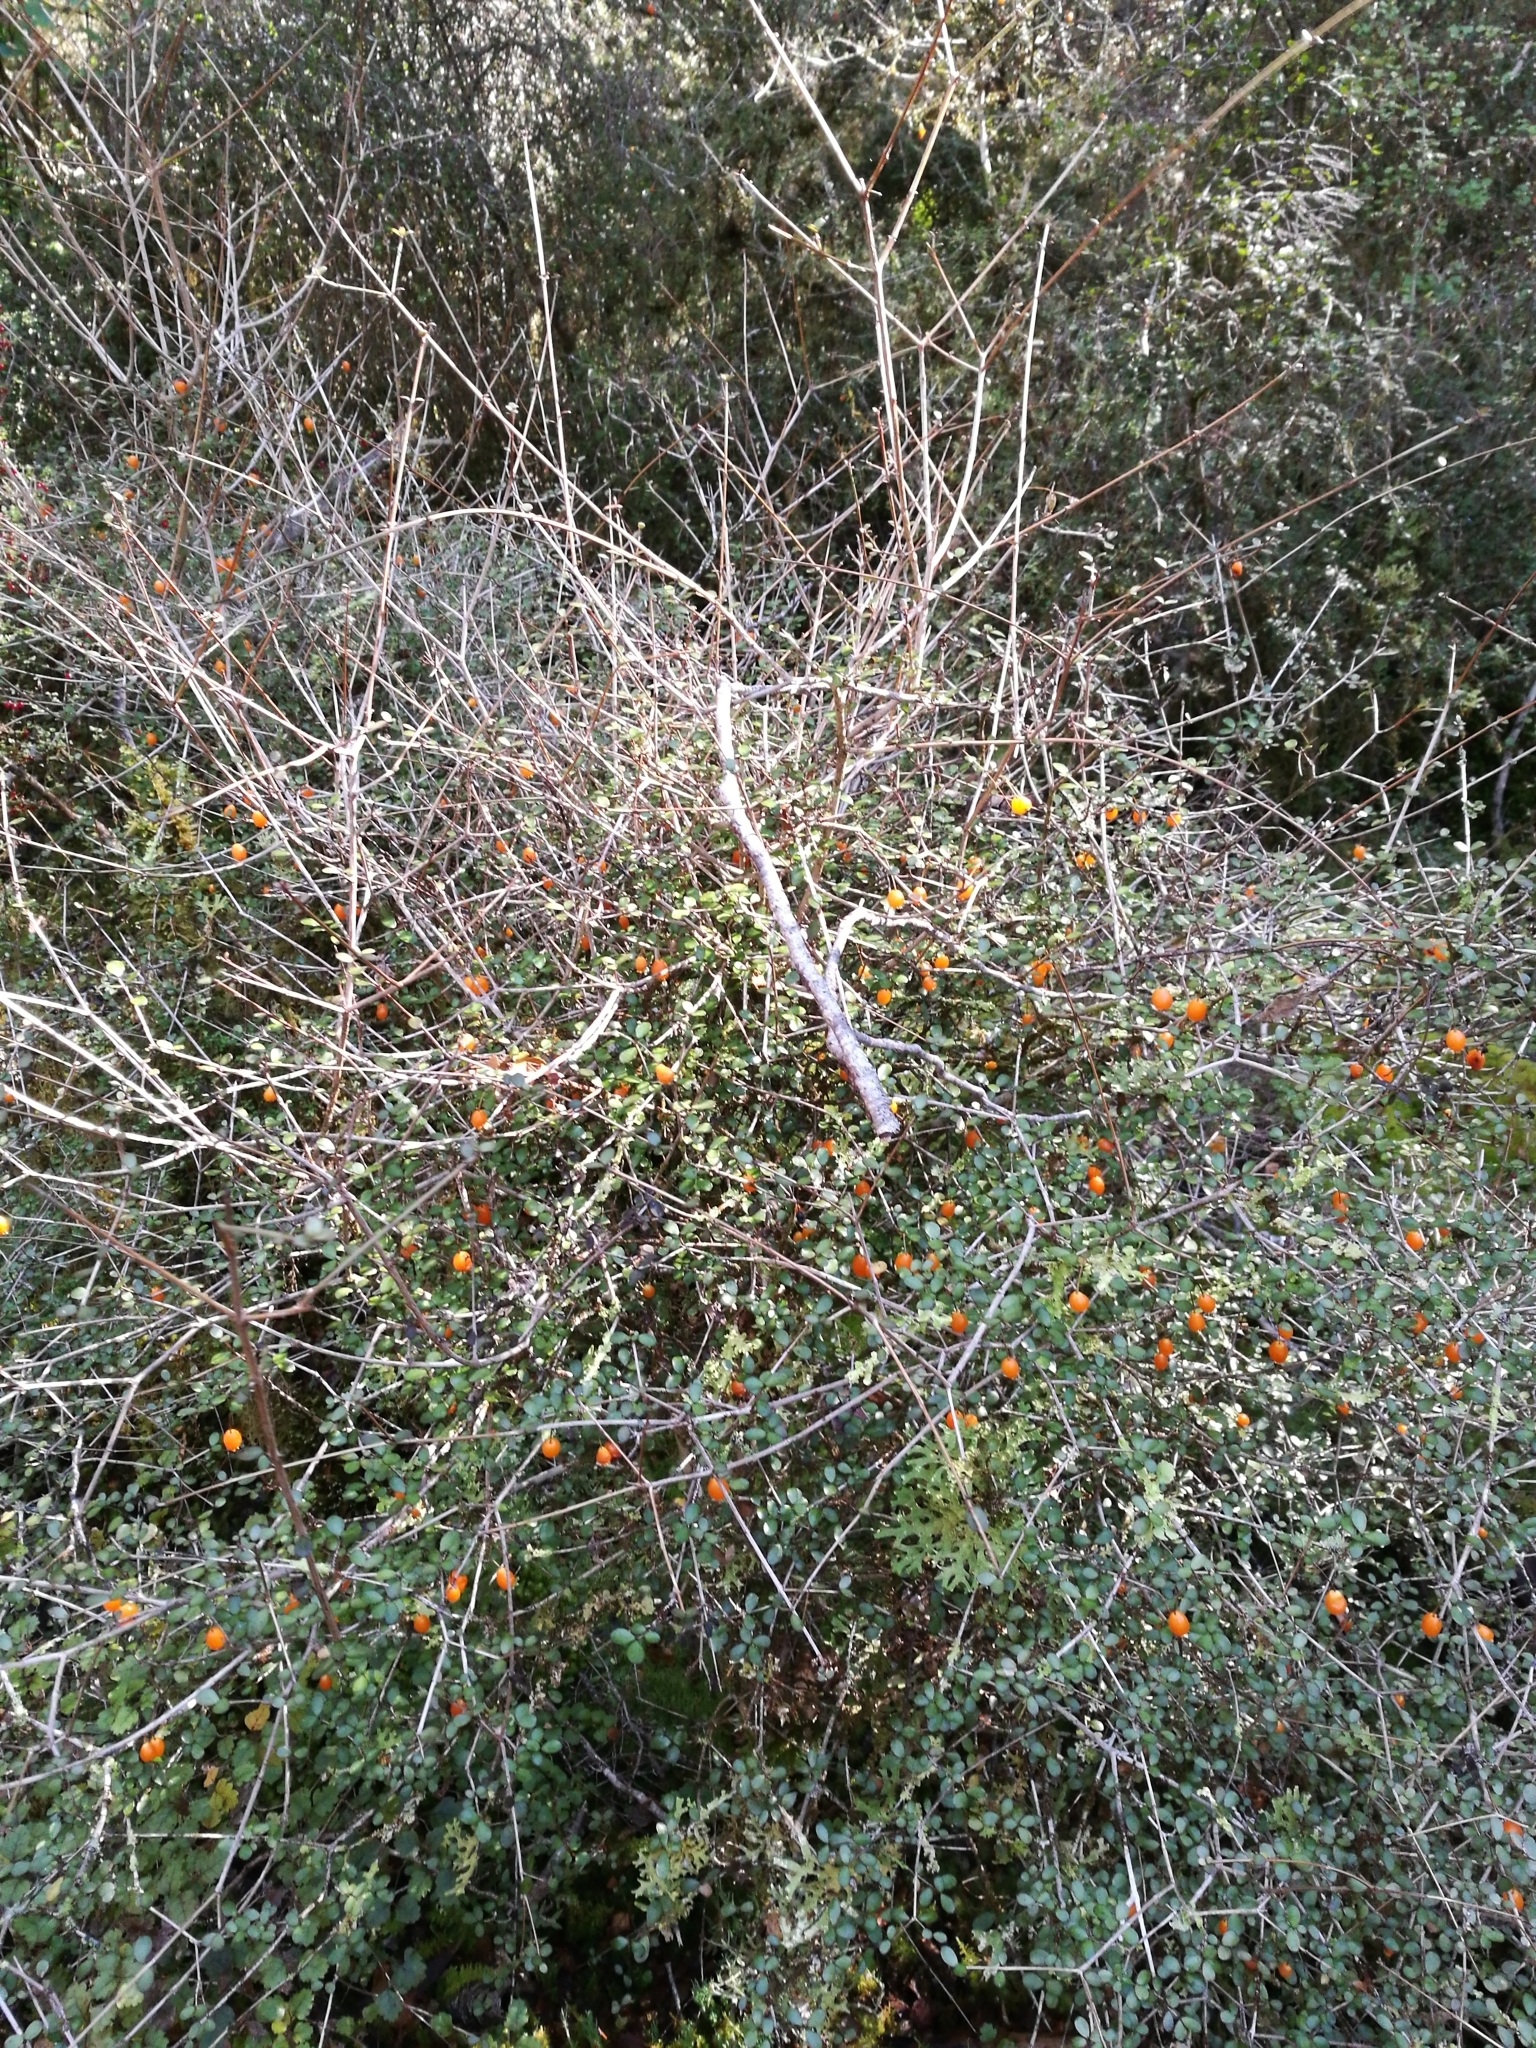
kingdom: Plantae
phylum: Tracheophyta
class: Magnoliopsida
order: Myrtales
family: Myrtaceae
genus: Neomyrtus
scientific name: Neomyrtus pedunculata
